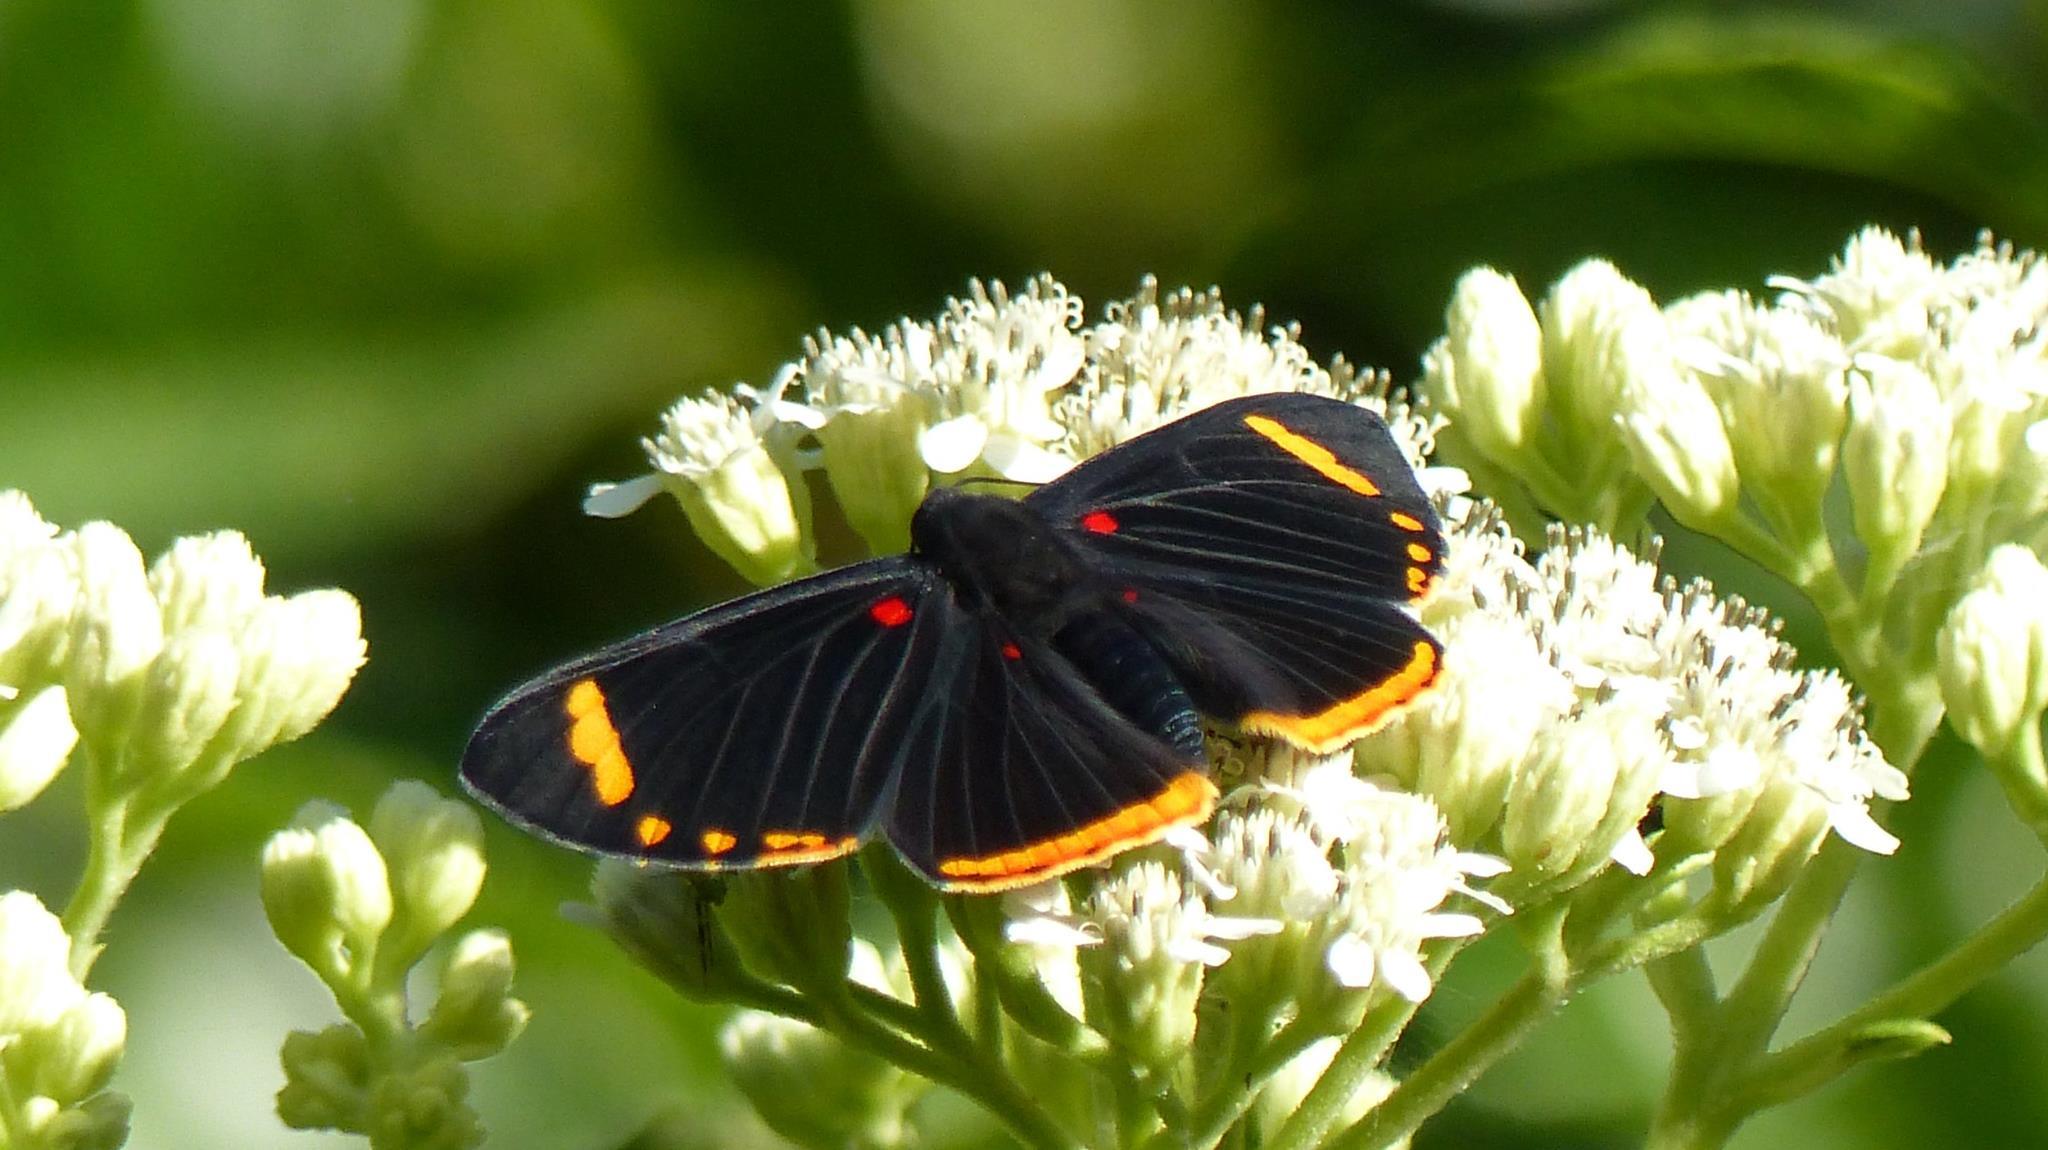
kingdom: Animalia
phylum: Arthropoda
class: Insecta
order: Lepidoptera
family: Lycaenidae
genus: Melanis
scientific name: Melanis xenia
